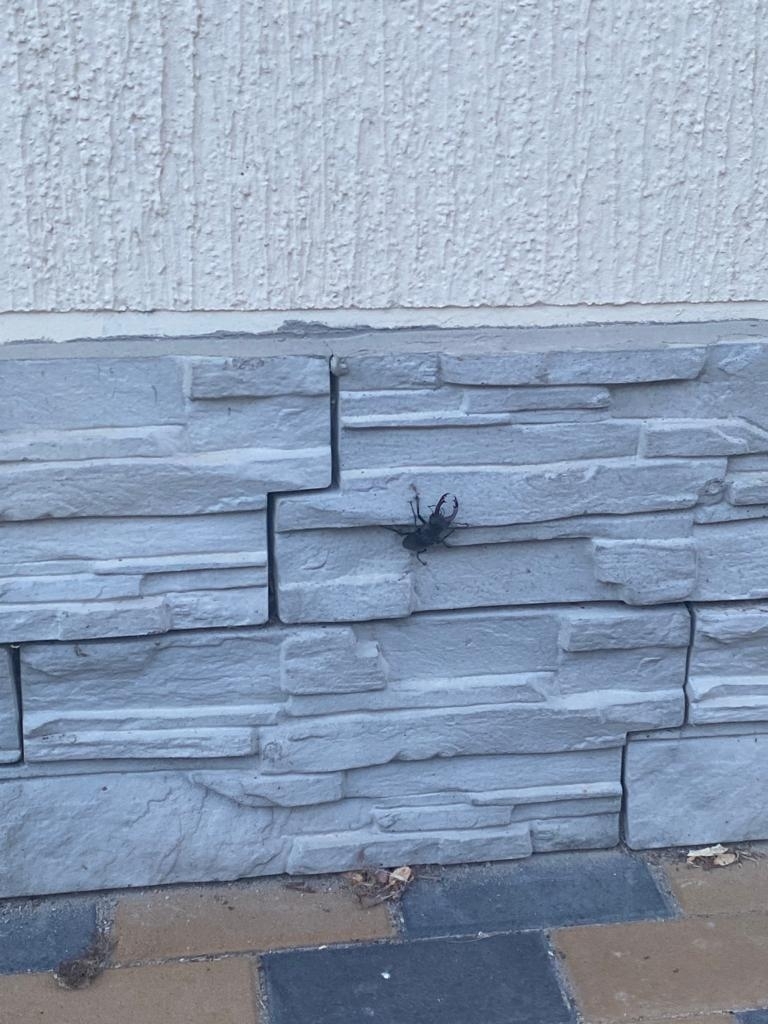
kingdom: Animalia
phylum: Arthropoda
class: Insecta
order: Coleoptera
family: Lucanidae
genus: Lucanus
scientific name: Lucanus cervus
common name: Stag beetle
